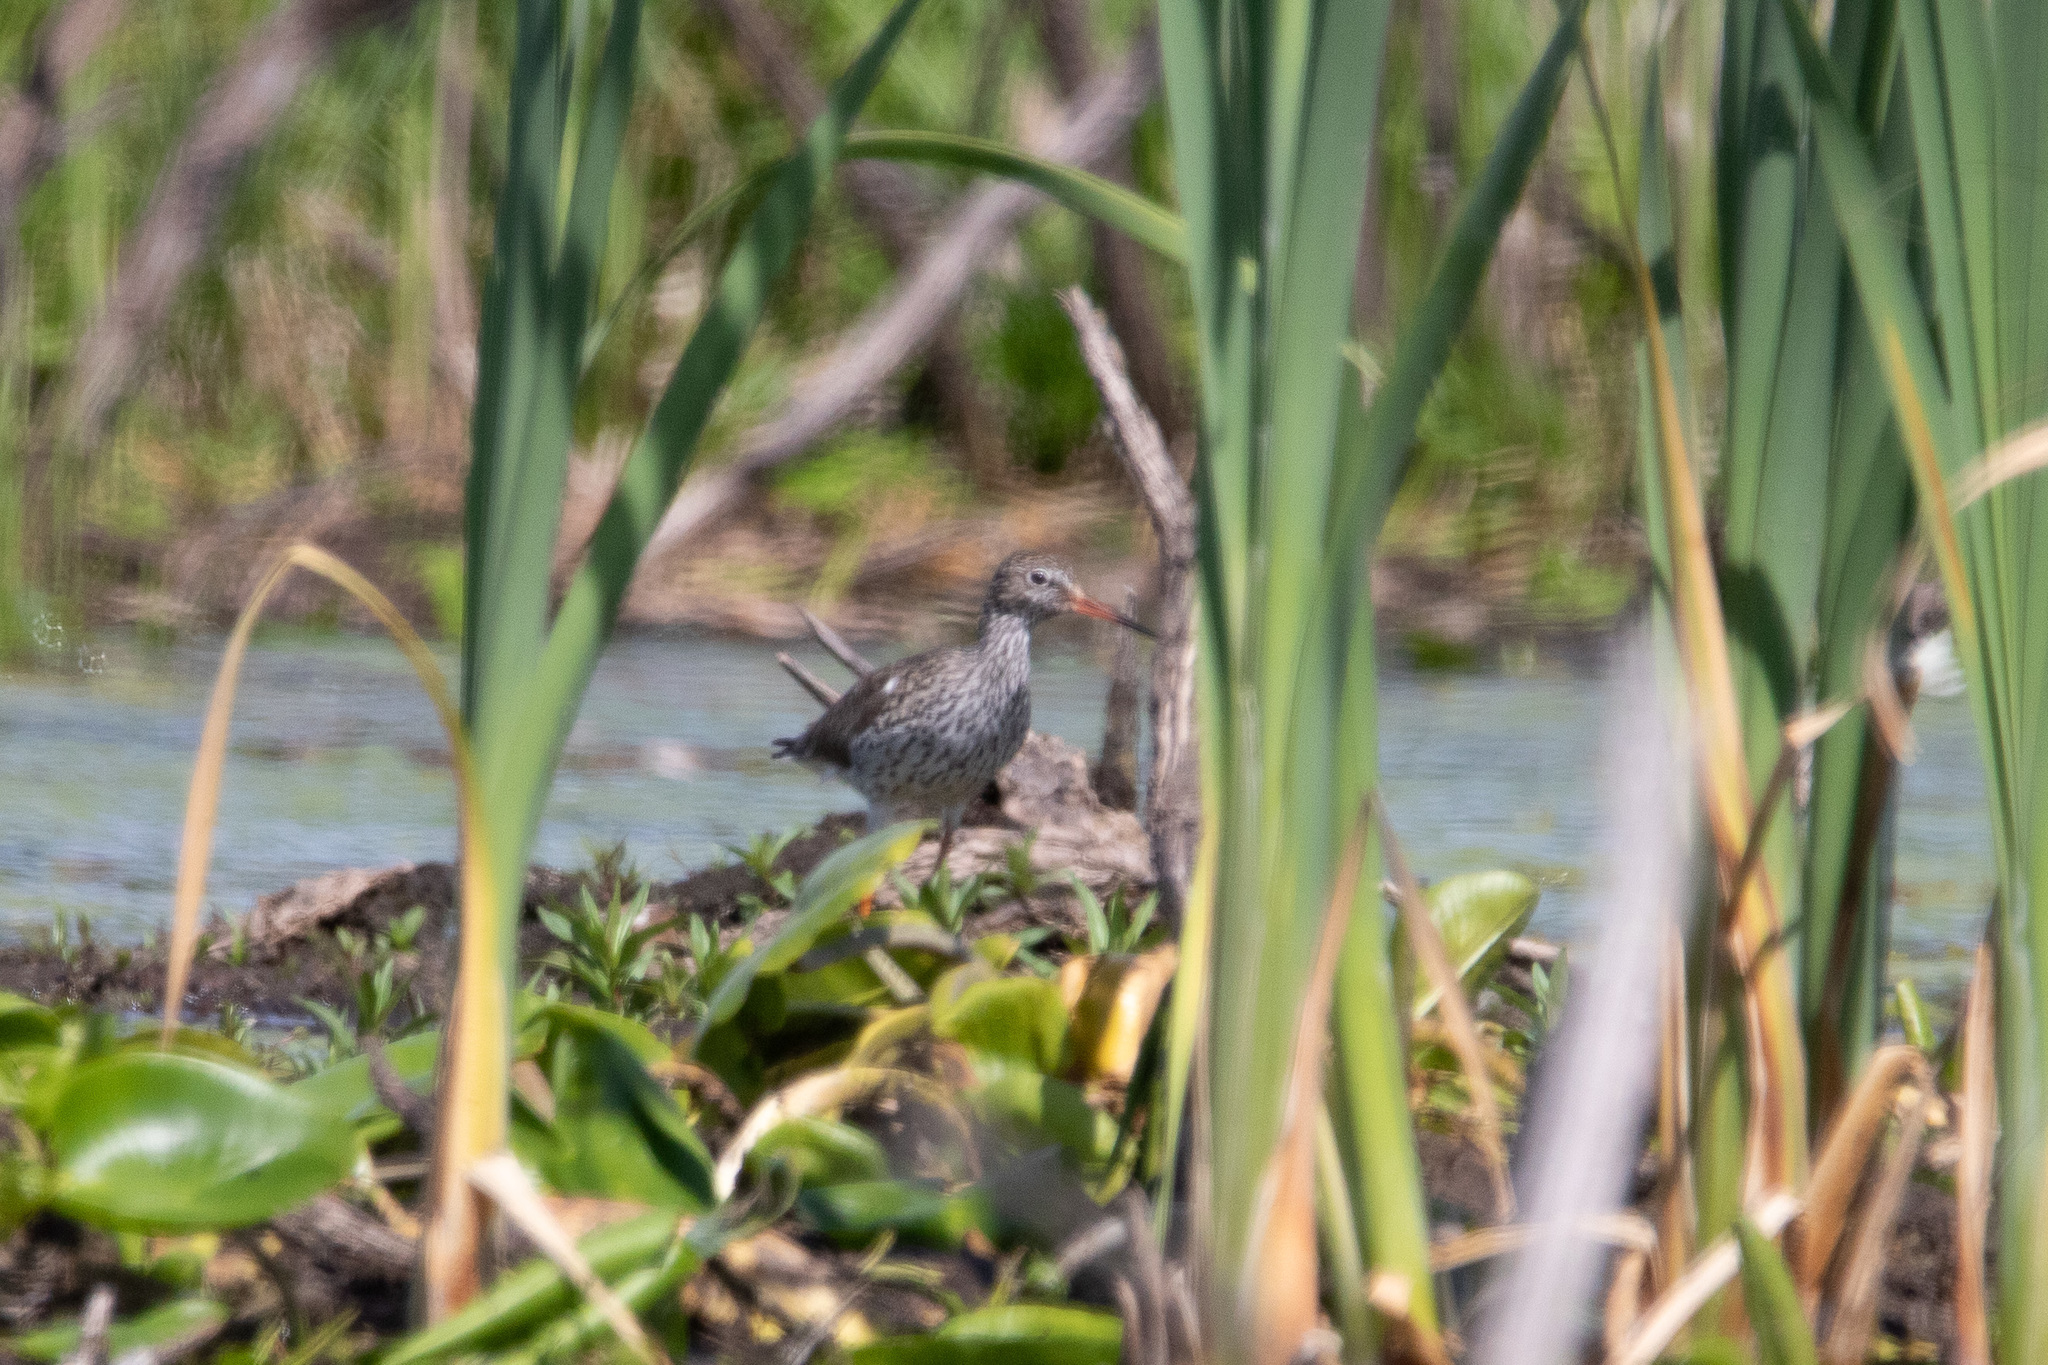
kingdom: Animalia
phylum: Chordata
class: Aves
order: Charadriiformes
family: Scolopacidae
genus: Tringa
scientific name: Tringa totanus
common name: Common redshank
